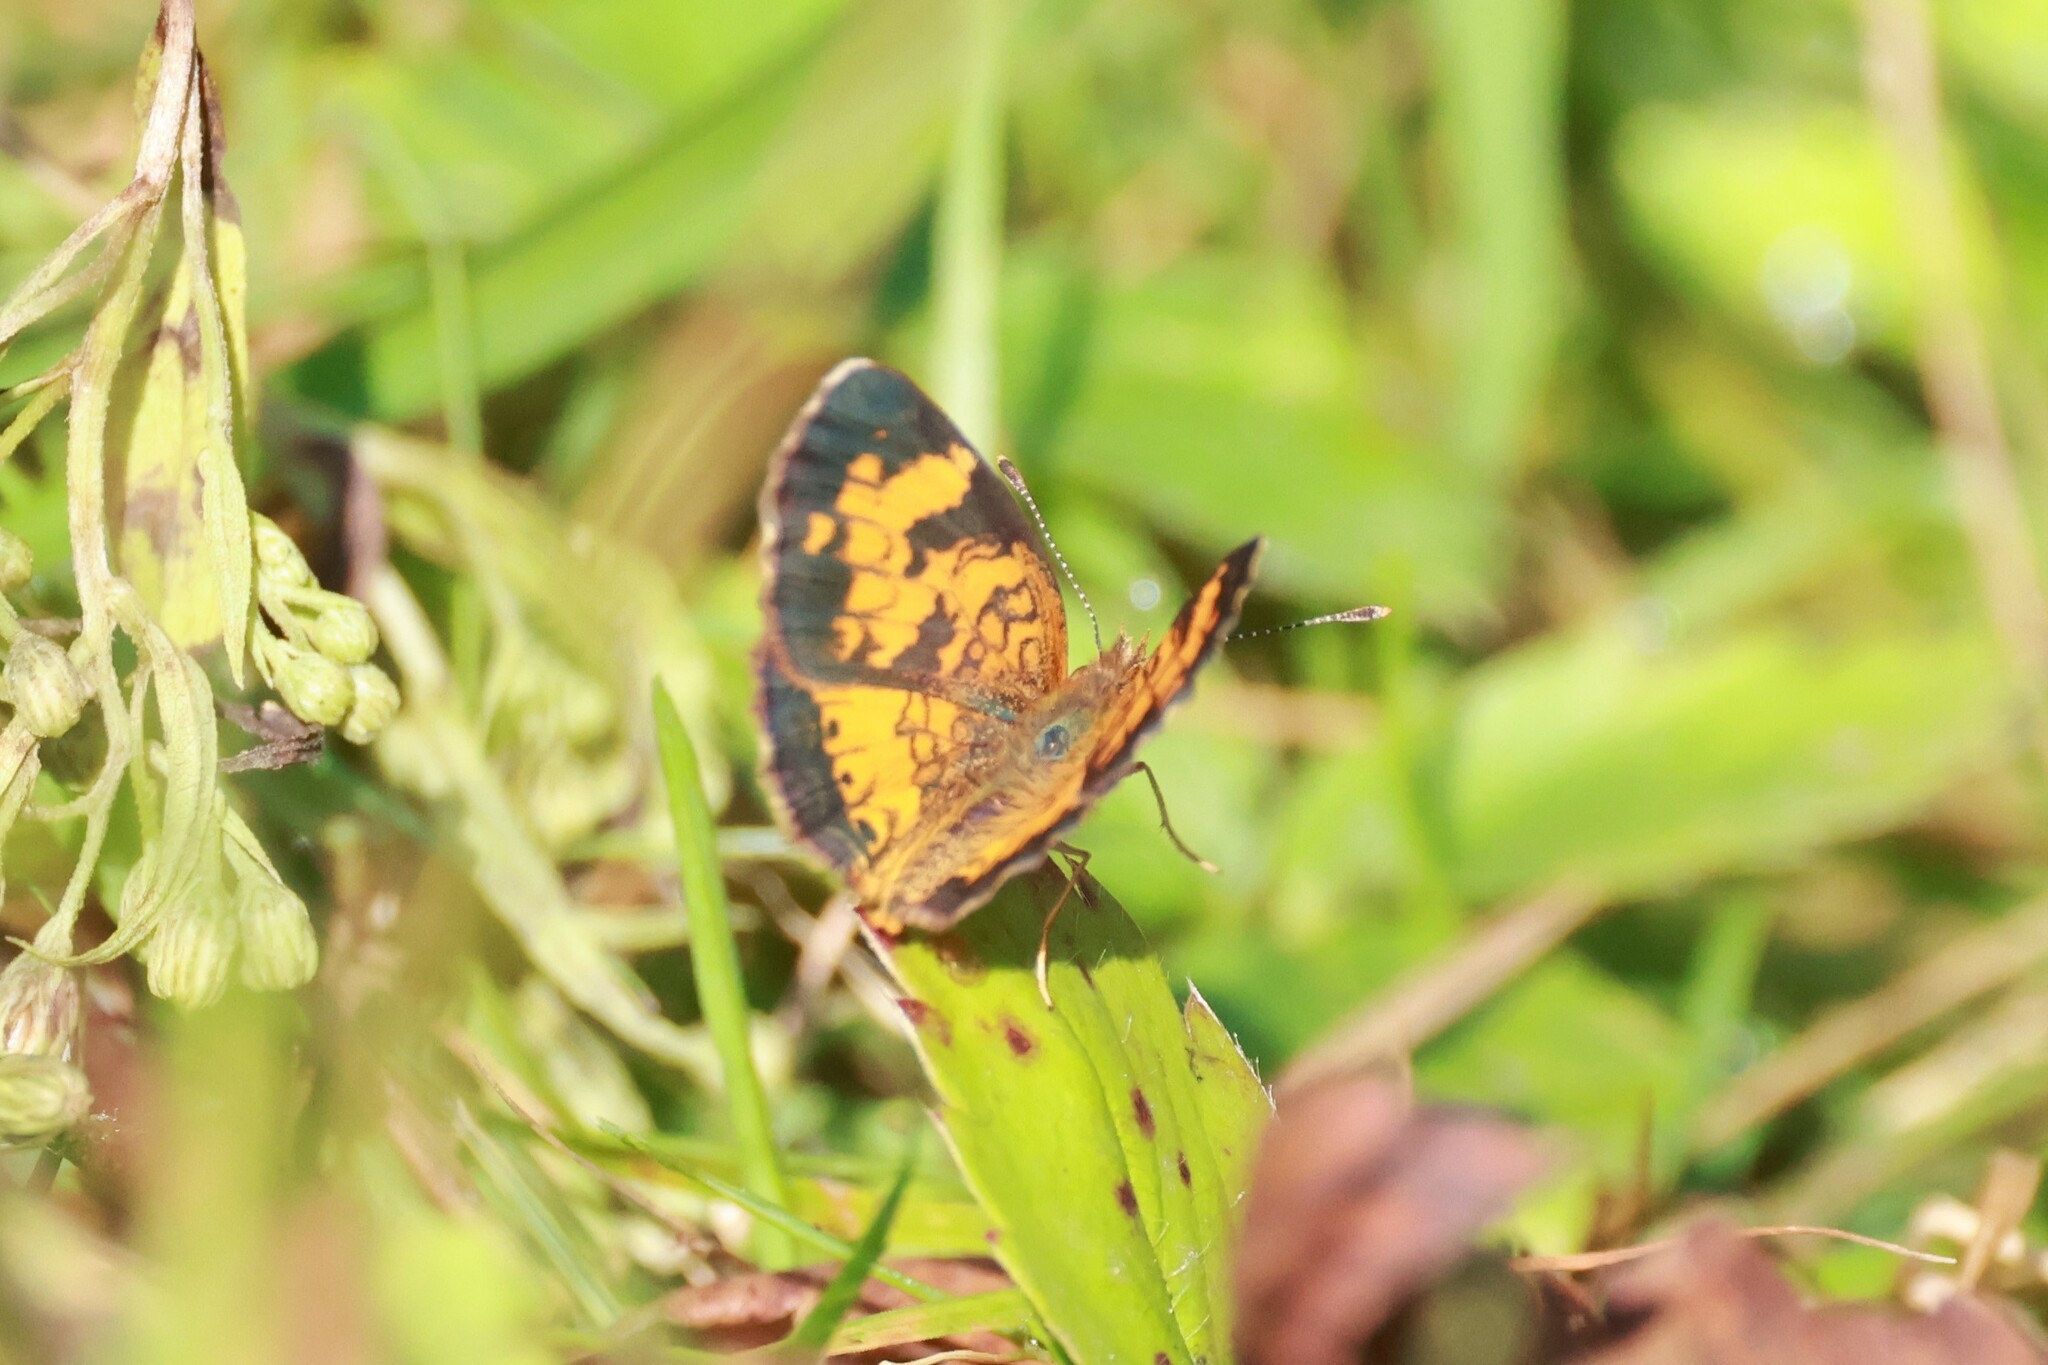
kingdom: Animalia
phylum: Arthropoda
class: Insecta
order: Lepidoptera
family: Nymphalidae
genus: Phyciodes
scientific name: Phyciodes tharos
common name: Pearl crescent
